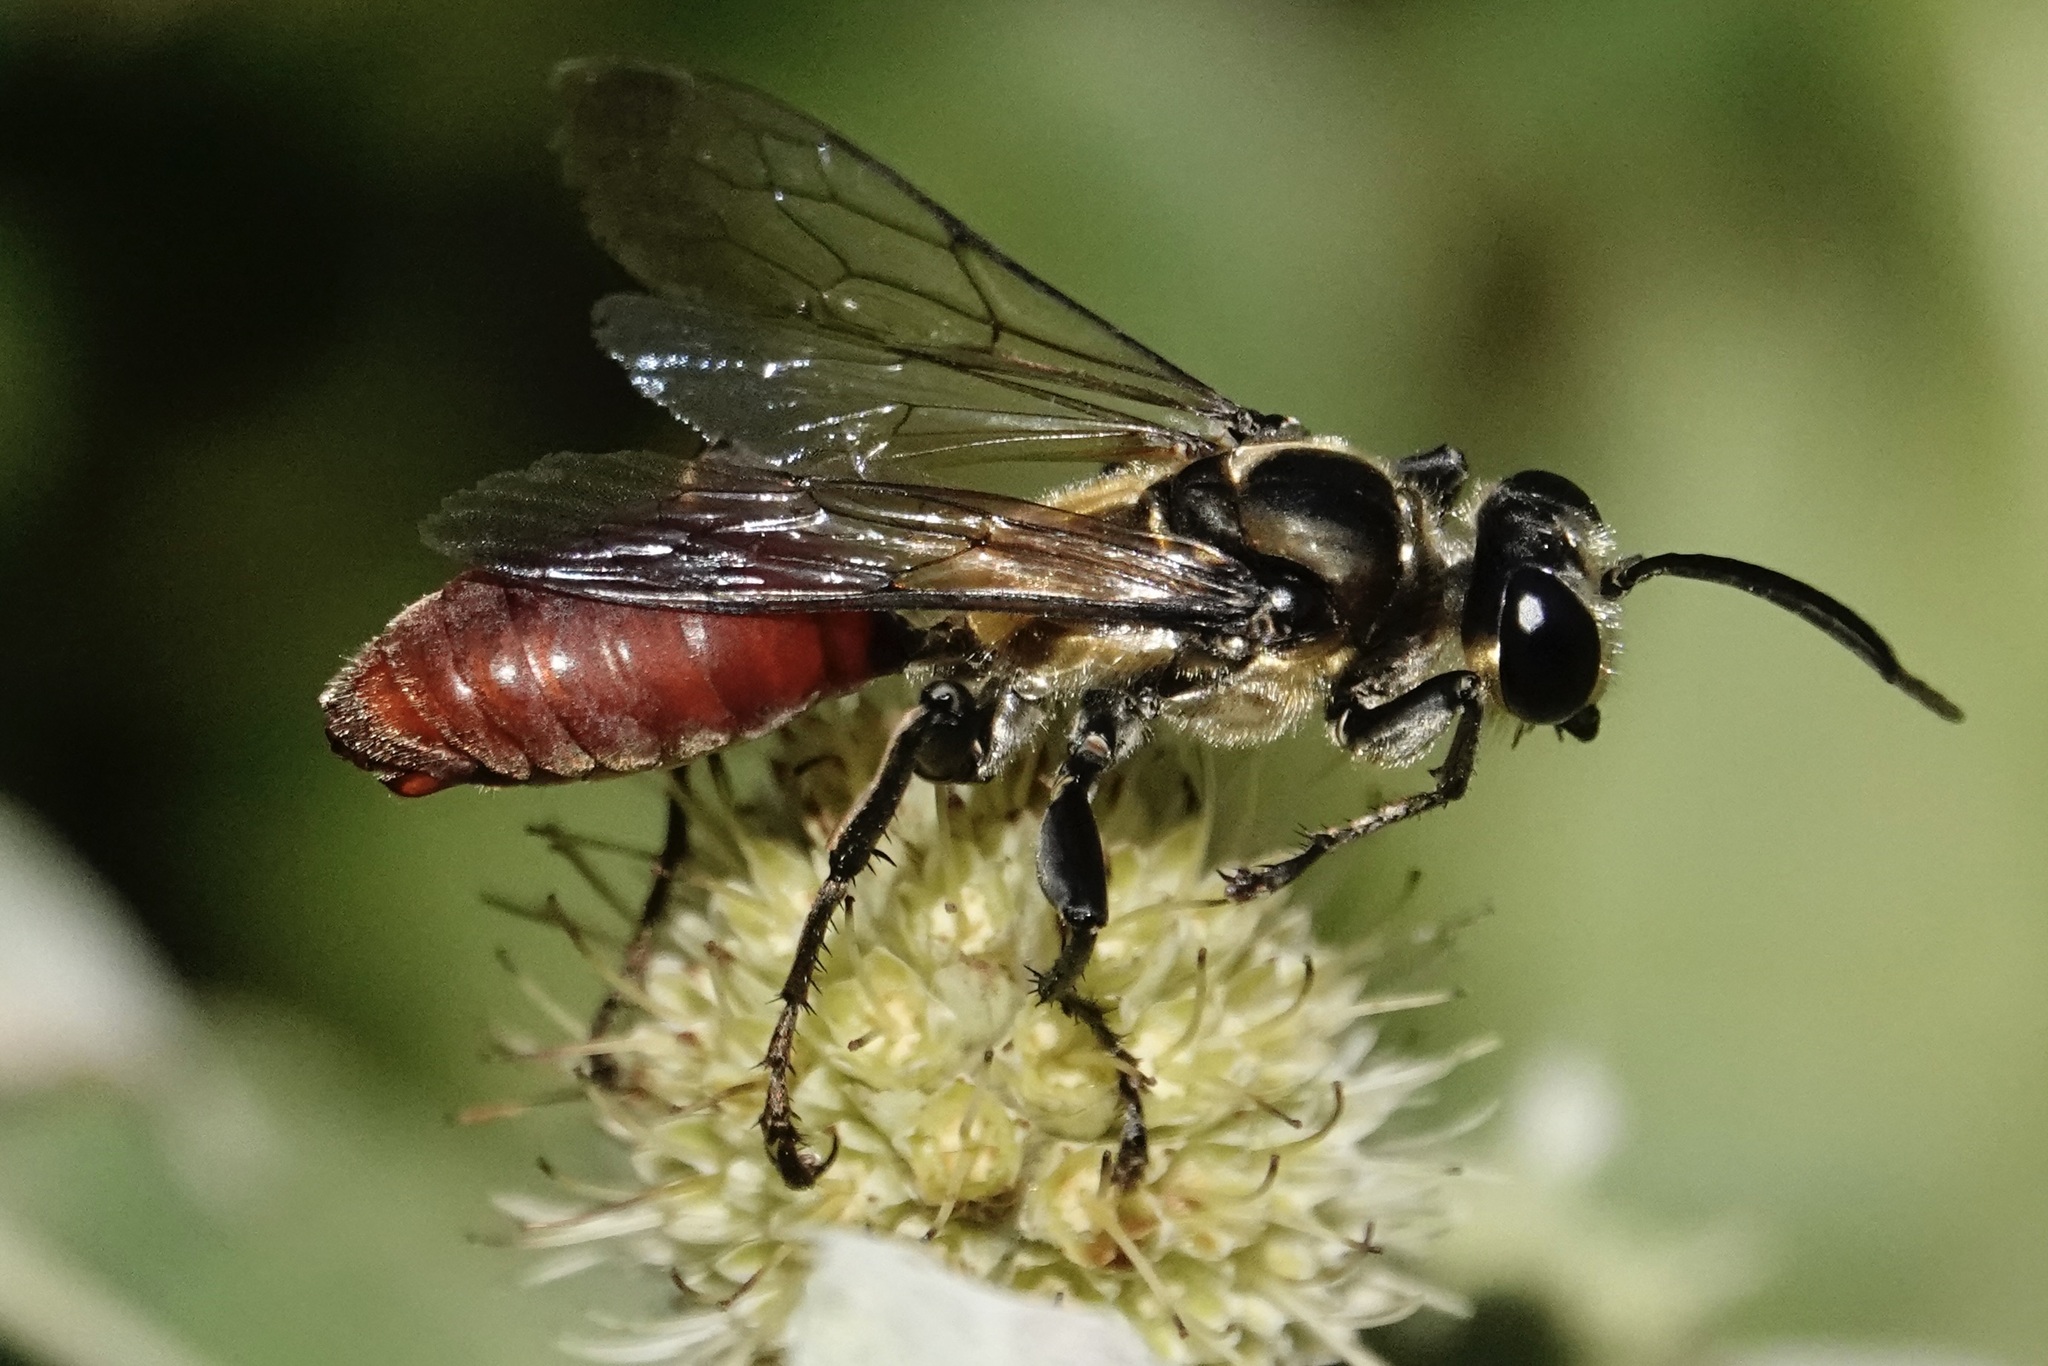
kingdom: Animalia
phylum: Arthropoda
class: Insecta
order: Hymenoptera
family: Sphecidae
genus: Sphex
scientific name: Sphex habenus
